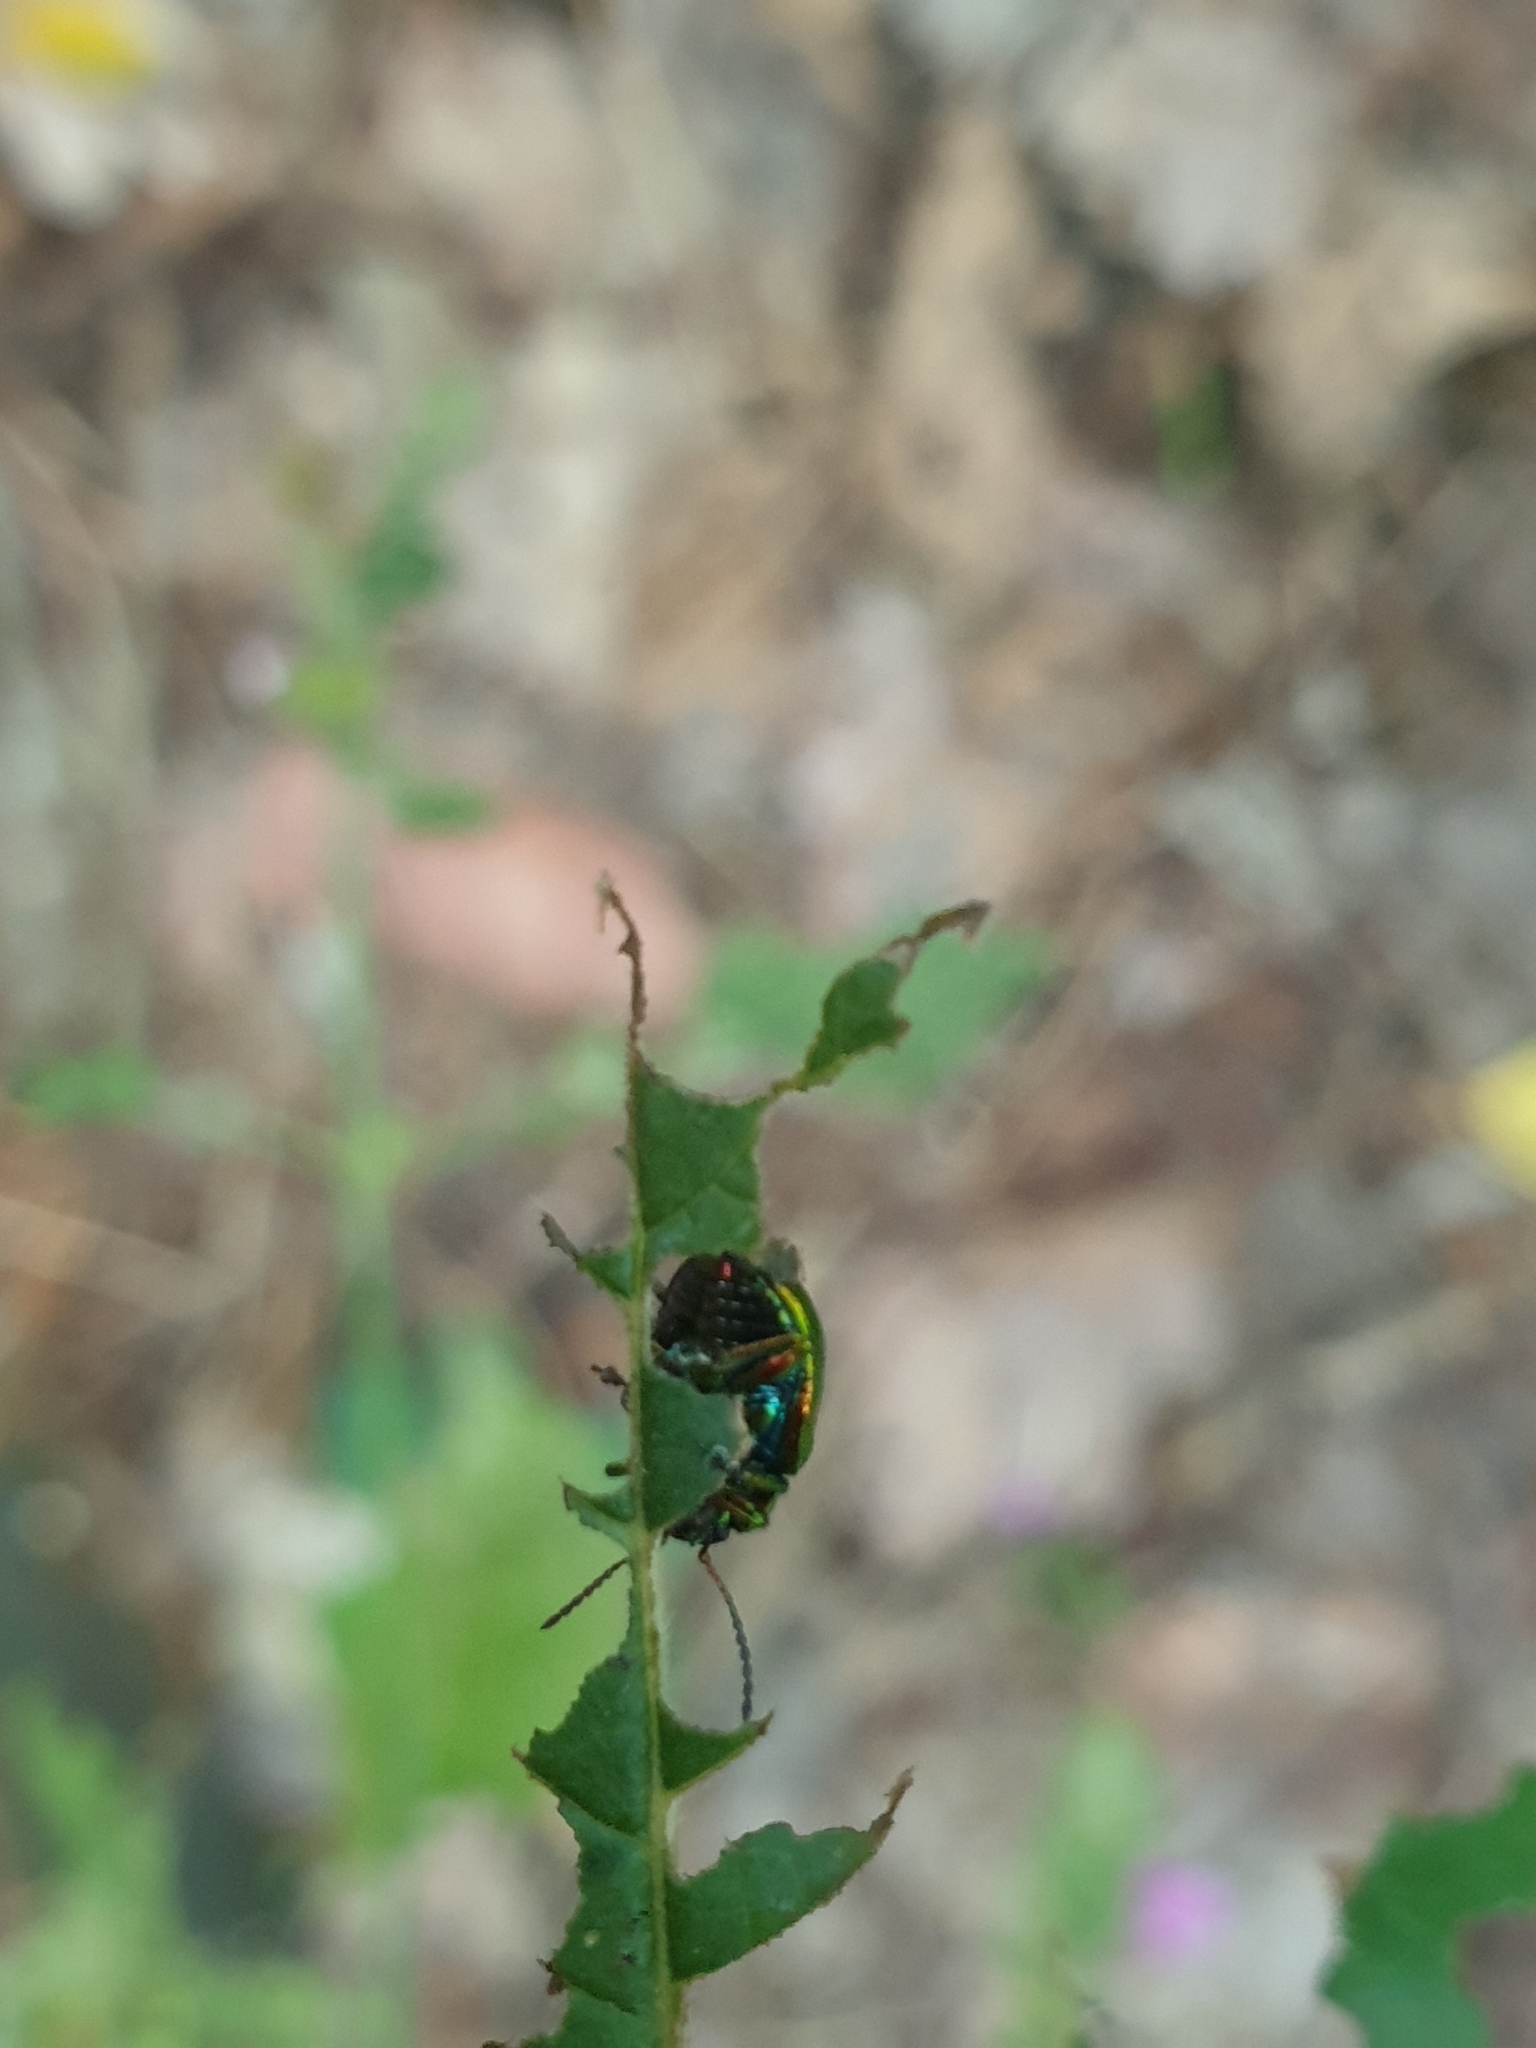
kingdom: Animalia
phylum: Arthropoda
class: Insecta
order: Coleoptera
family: Chrysomelidae
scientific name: Chrysomelidae
